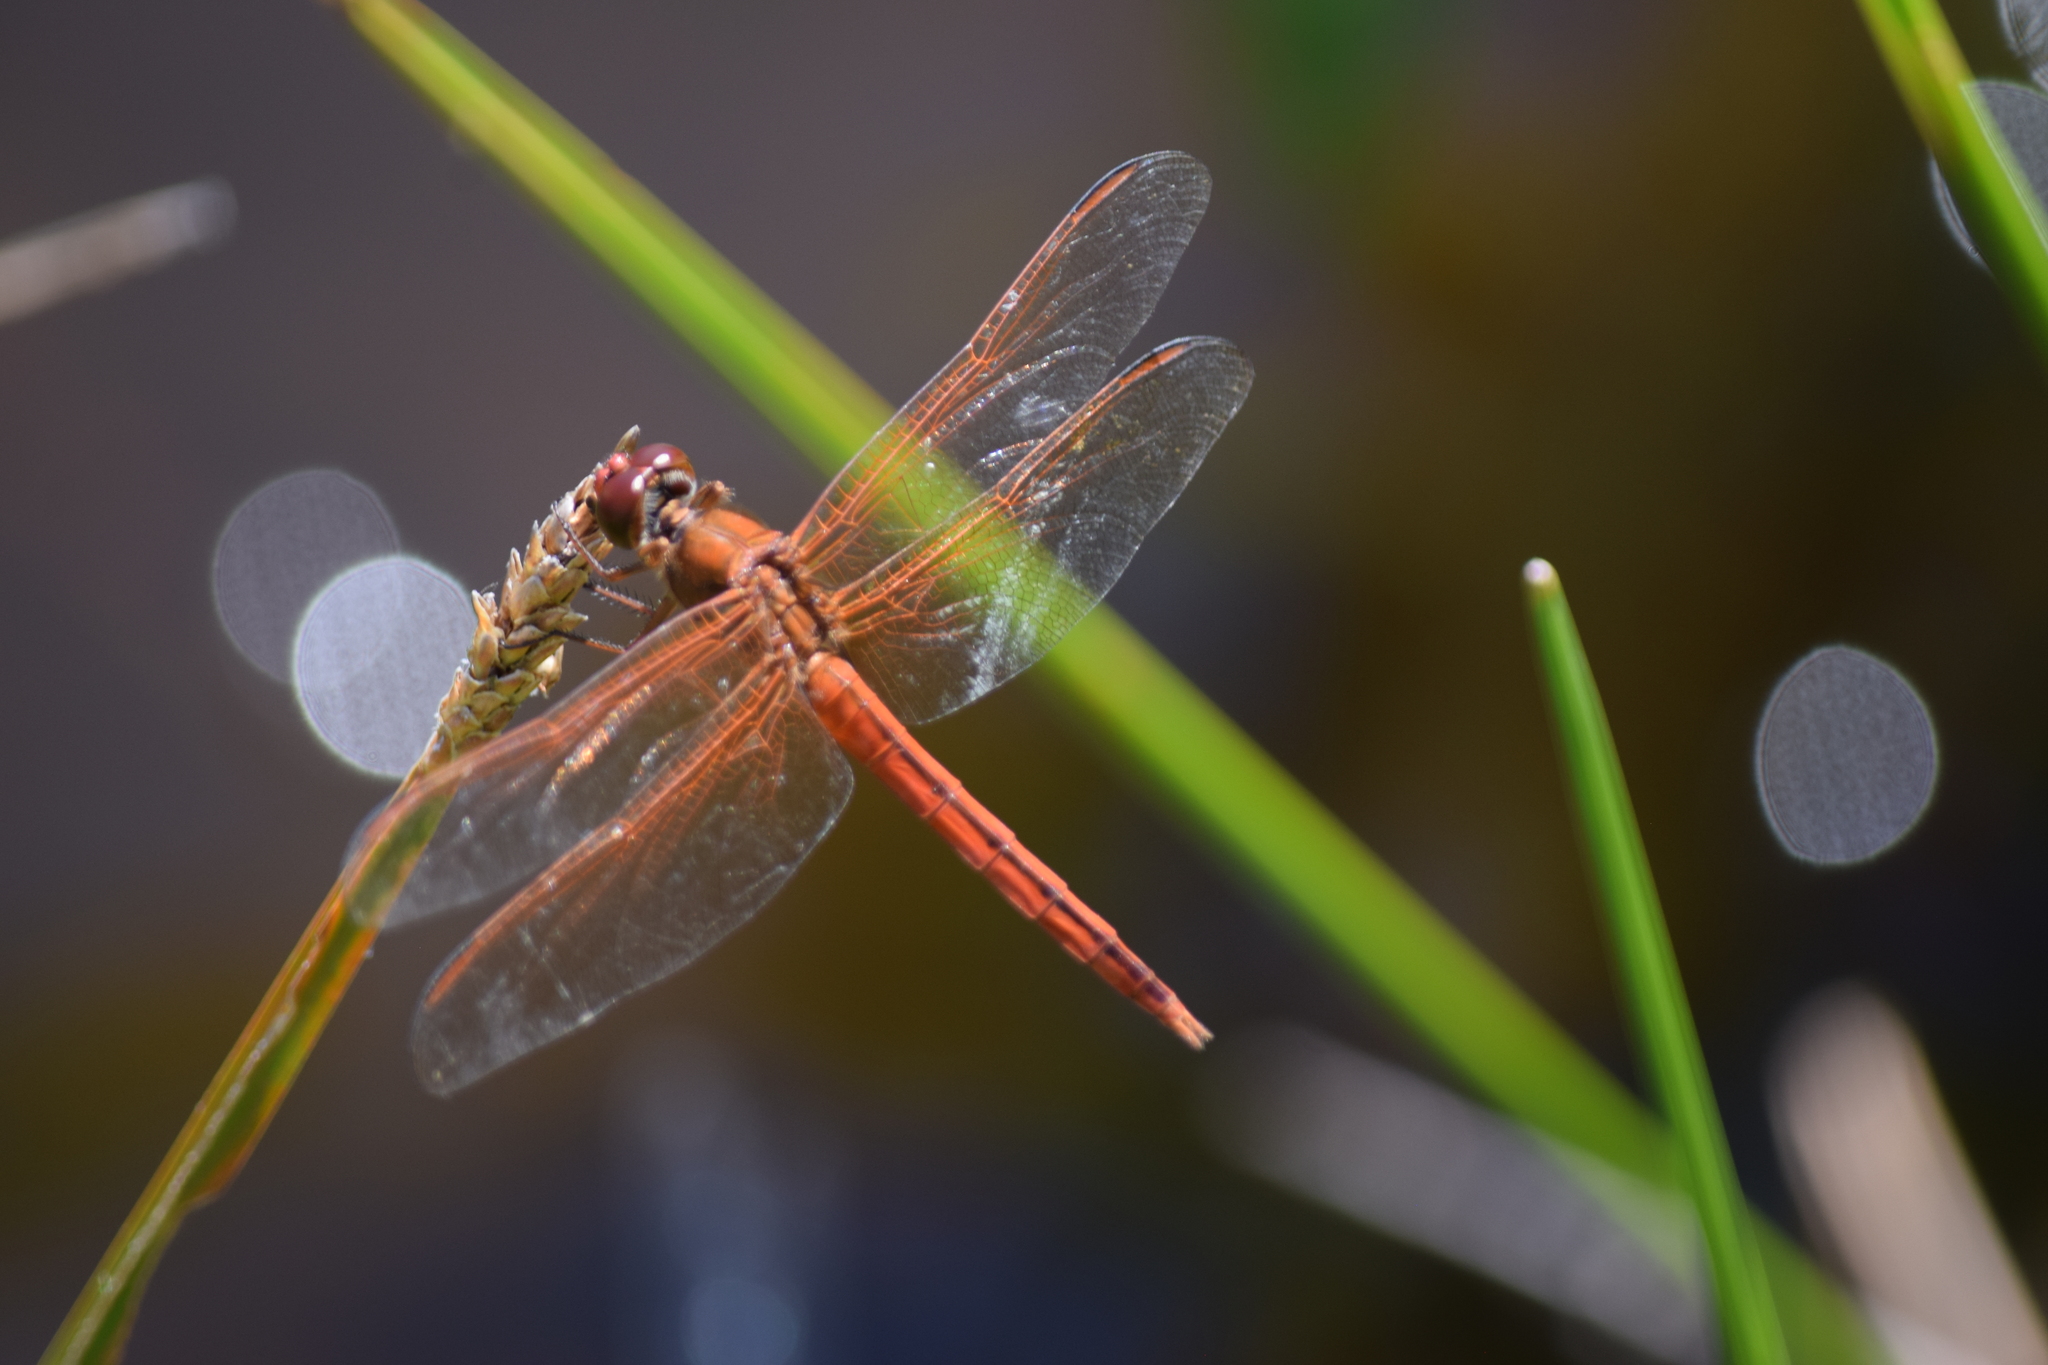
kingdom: Animalia
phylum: Arthropoda
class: Insecta
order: Odonata
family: Libellulidae
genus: Libellula
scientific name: Libellula needhami
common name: Needham's skimmer
